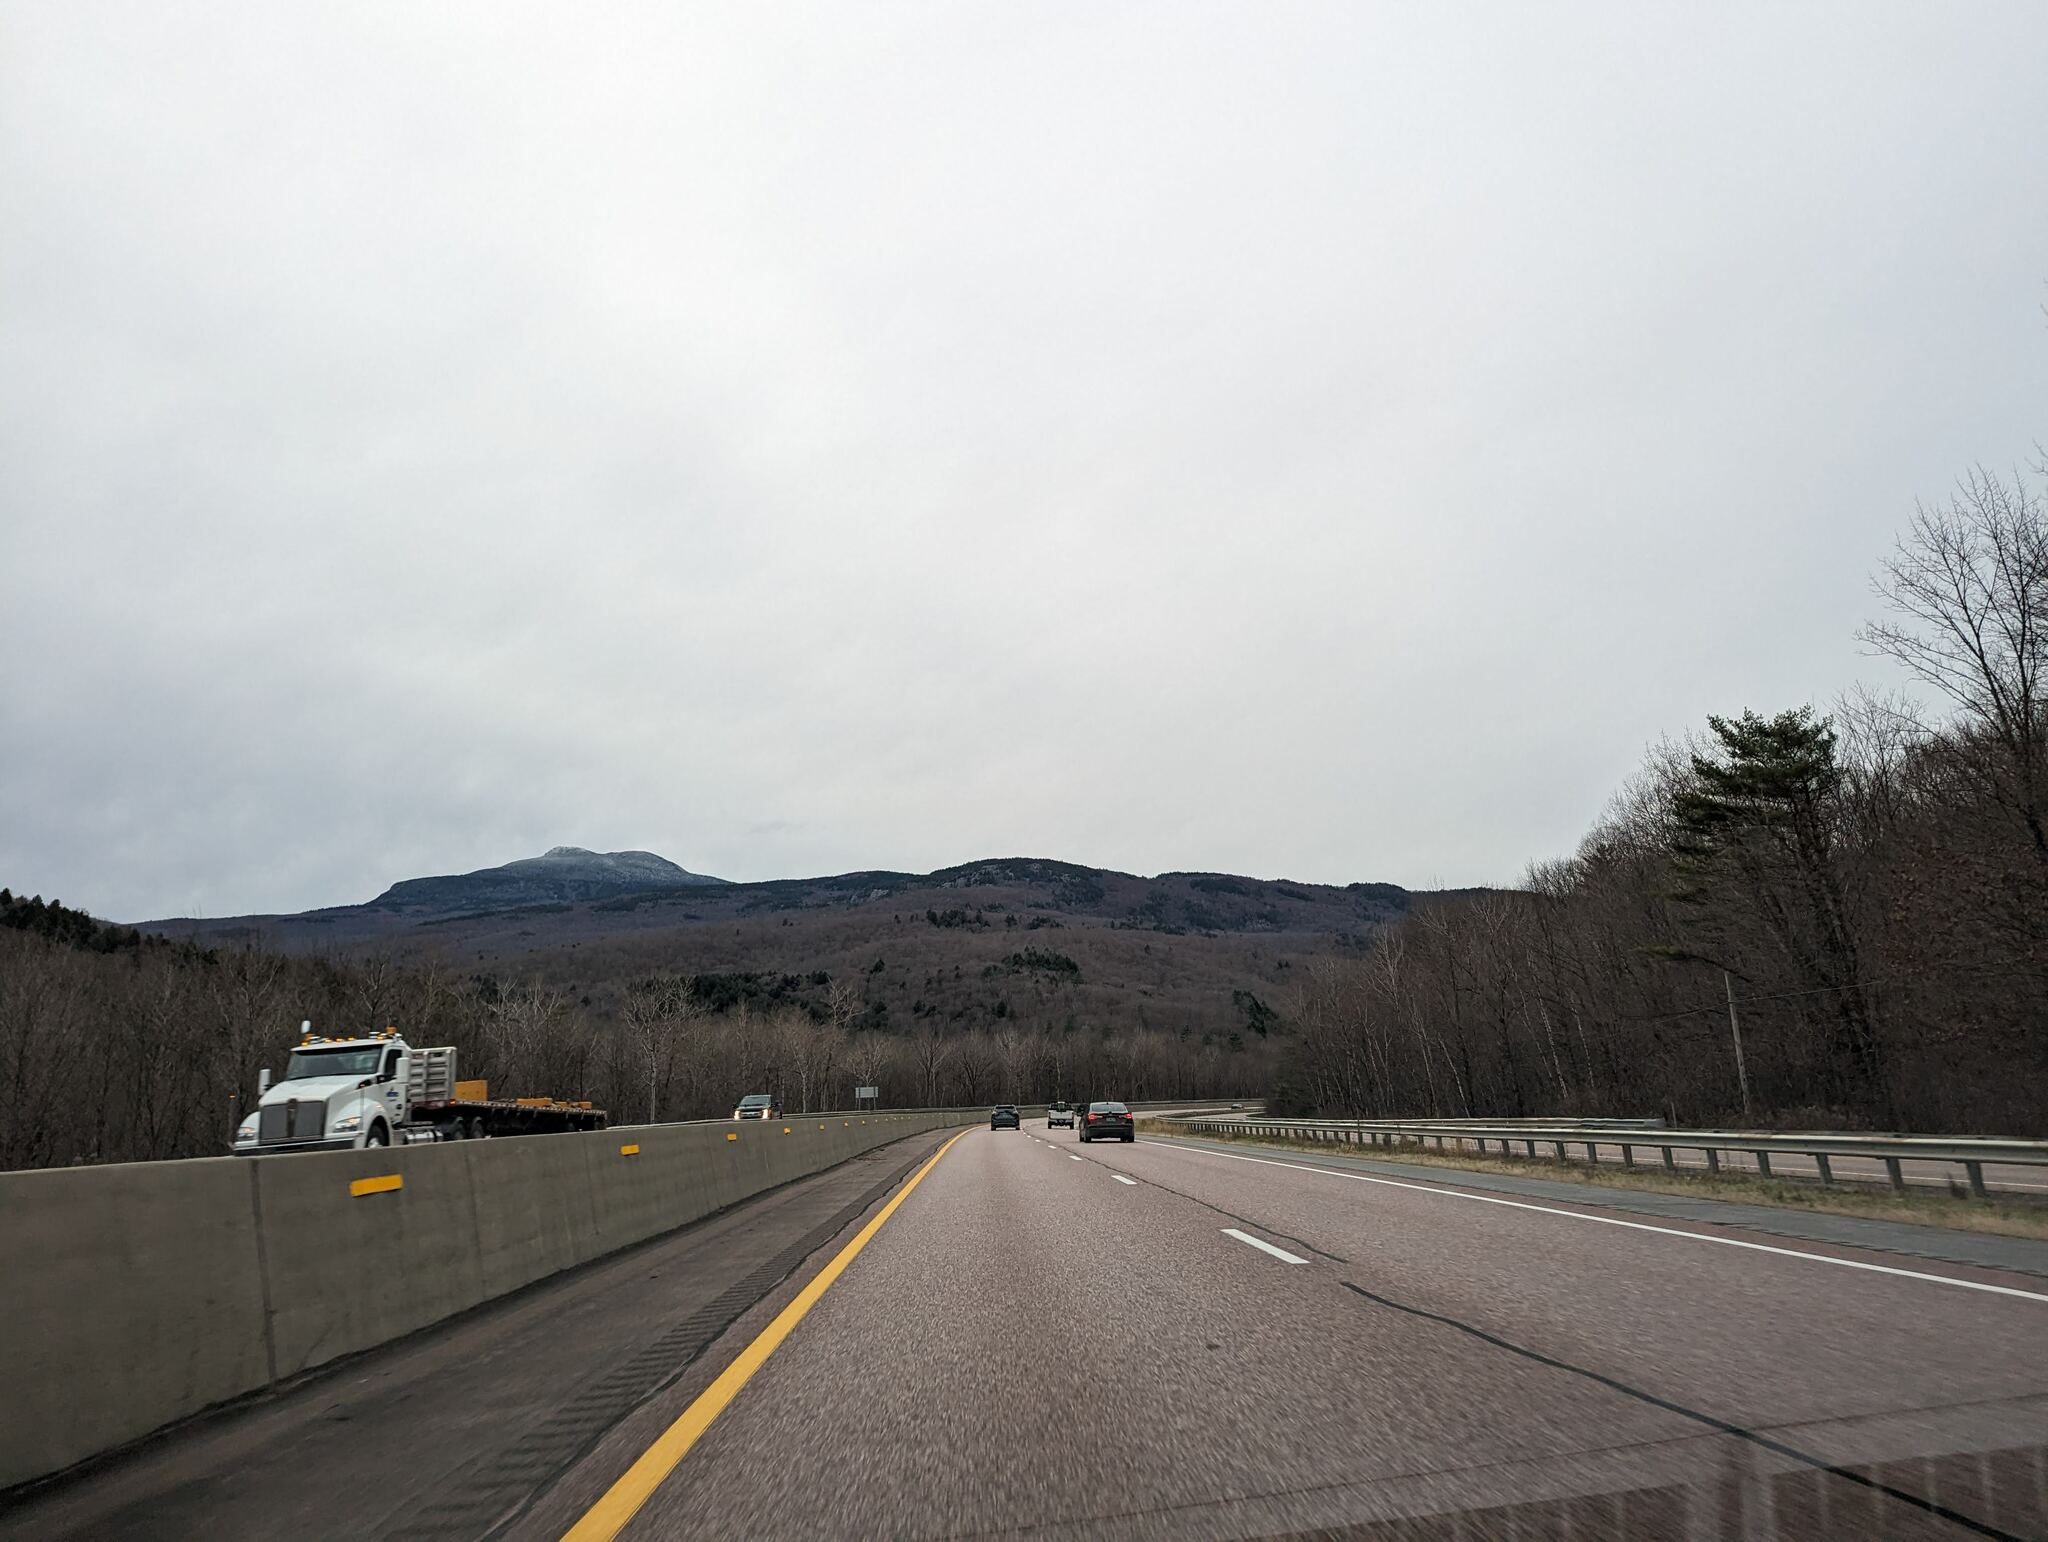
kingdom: Plantae
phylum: Tracheophyta
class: Pinopsida
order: Pinales
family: Pinaceae
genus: Pinus
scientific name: Pinus strobus
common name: Weymouth pine
